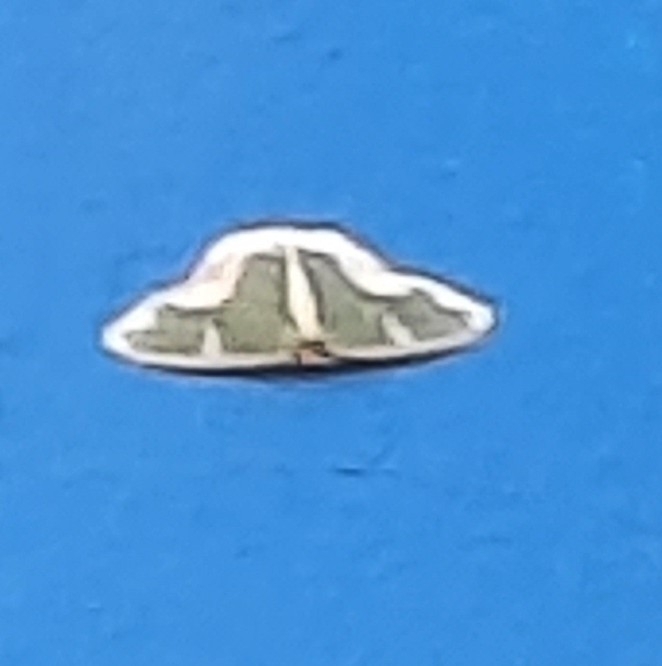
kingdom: Animalia
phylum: Arthropoda
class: Insecta
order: Lepidoptera
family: Geometridae
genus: Oospila
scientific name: Oospila venezuelata
